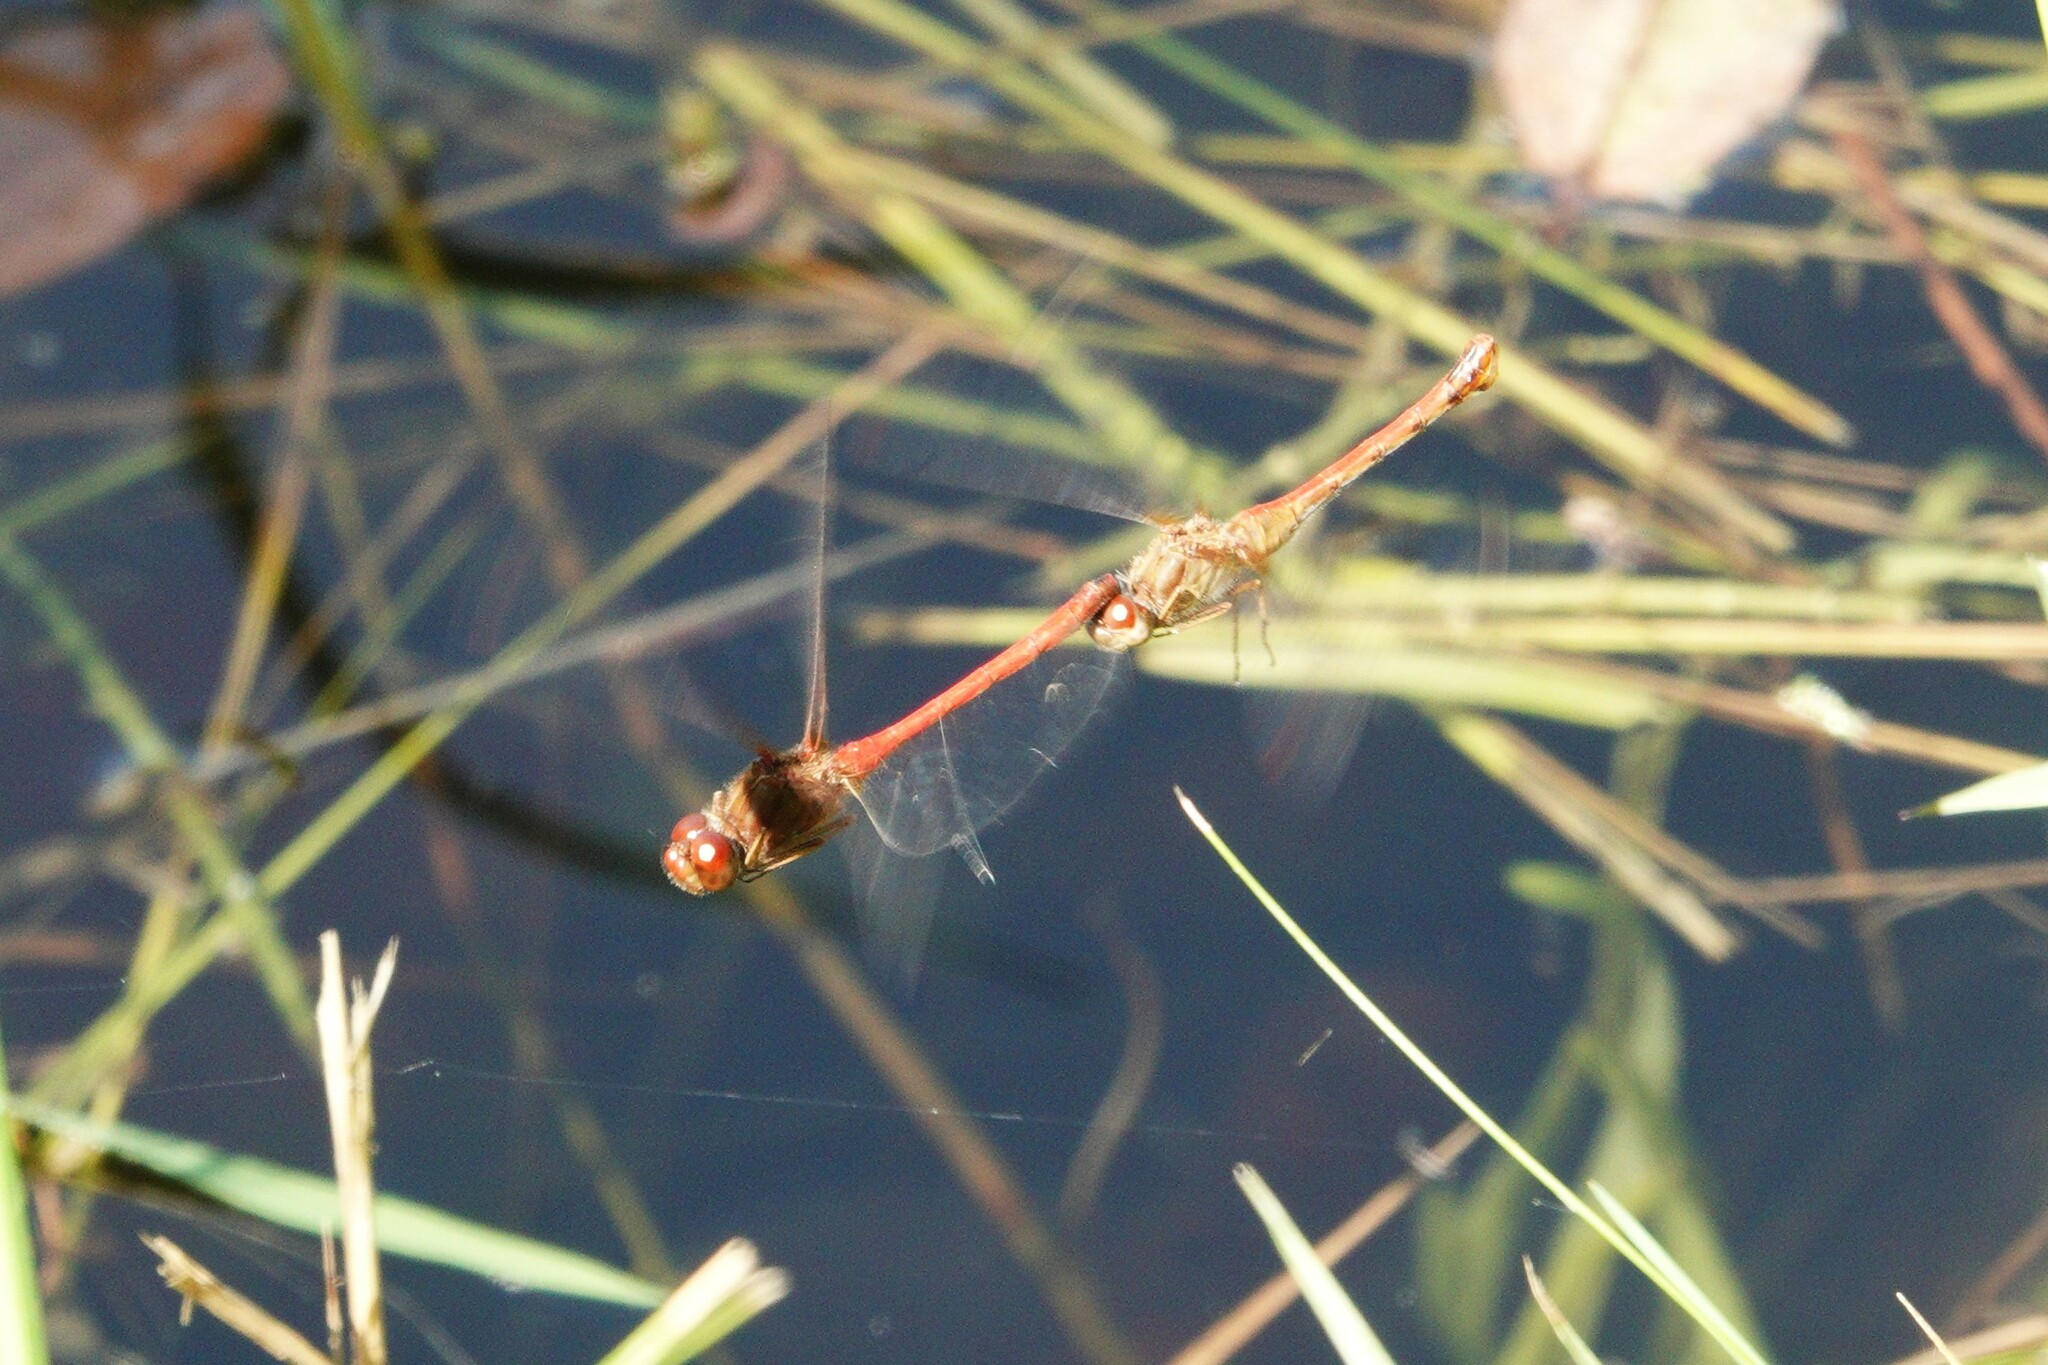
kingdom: Animalia
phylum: Arthropoda
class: Insecta
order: Odonata
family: Libellulidae
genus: Sympetrum
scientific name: Sympetrum vicinum
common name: Autumn meadowhawk
